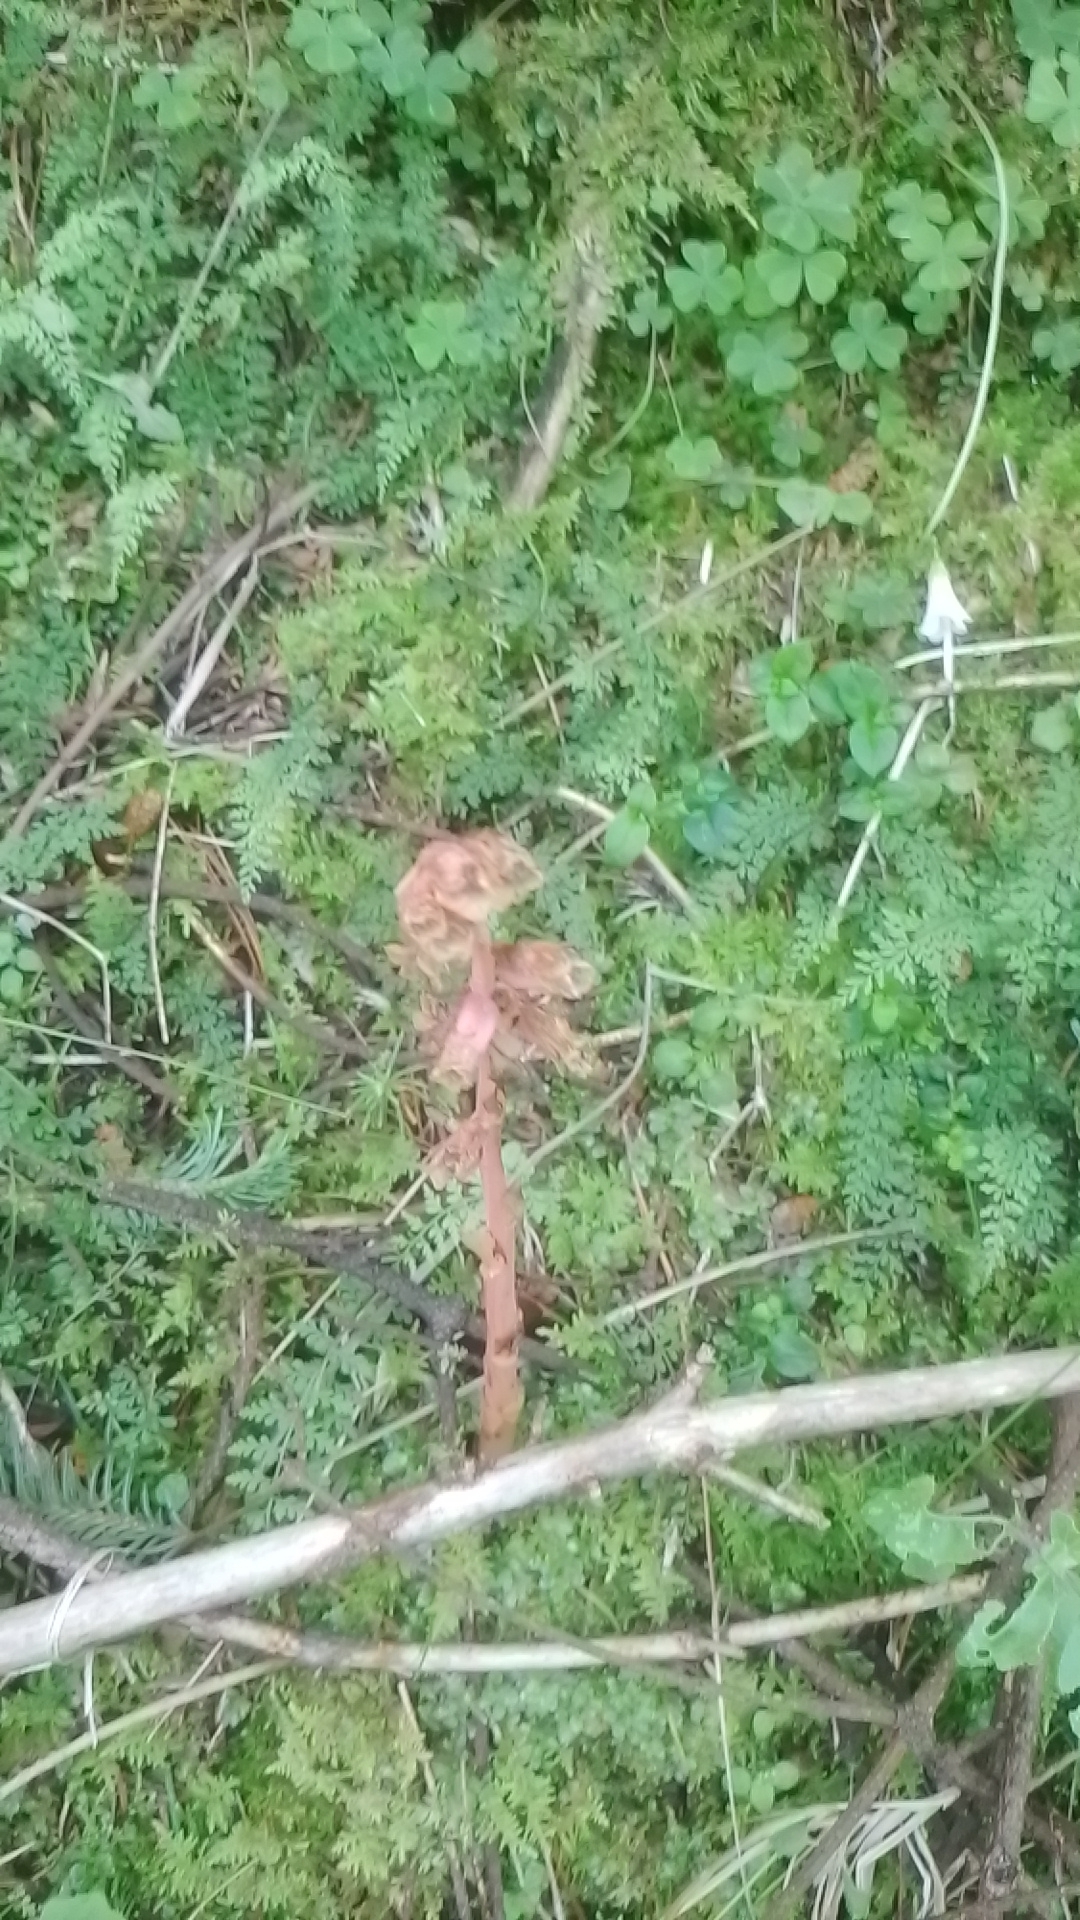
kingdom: Plantae
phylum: Tracheophyta
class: Magnoliopsida
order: Ericales
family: Ericaceae
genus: Hypopitys
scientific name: Hypopitys monotropa
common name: Yellow bird's-nest
